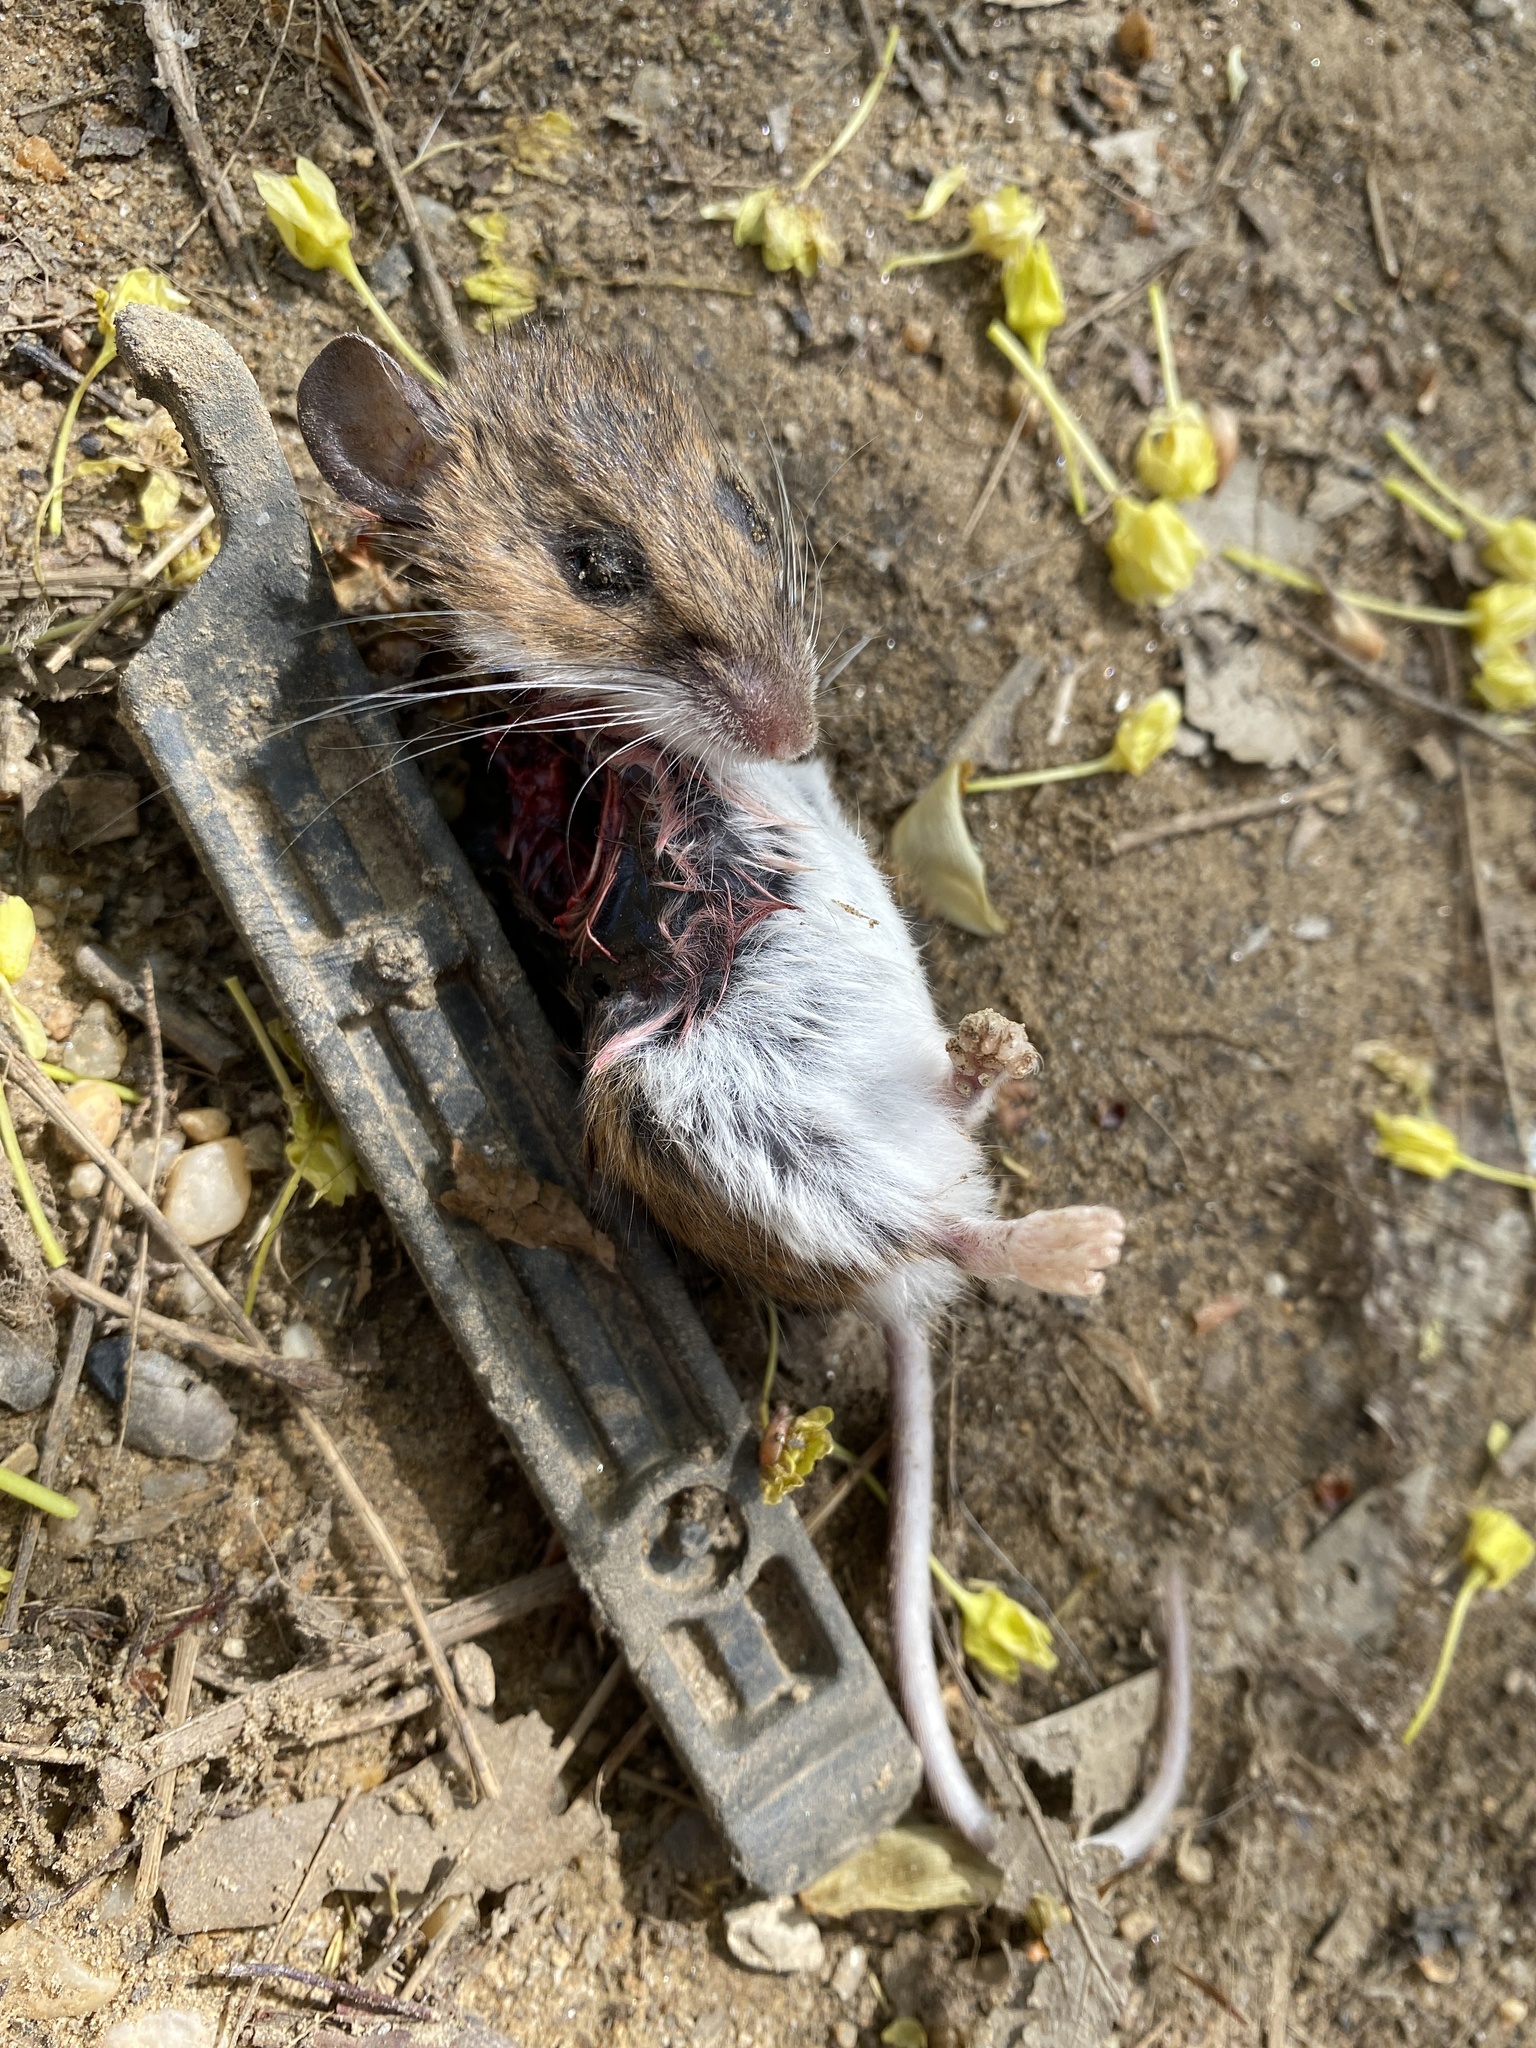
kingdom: Animalia
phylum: Chordata
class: Mammalia
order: Rodentia
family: Cricetidae
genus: Peromyscus
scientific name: Peromyscus leucopus
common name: White-footed deermouse
